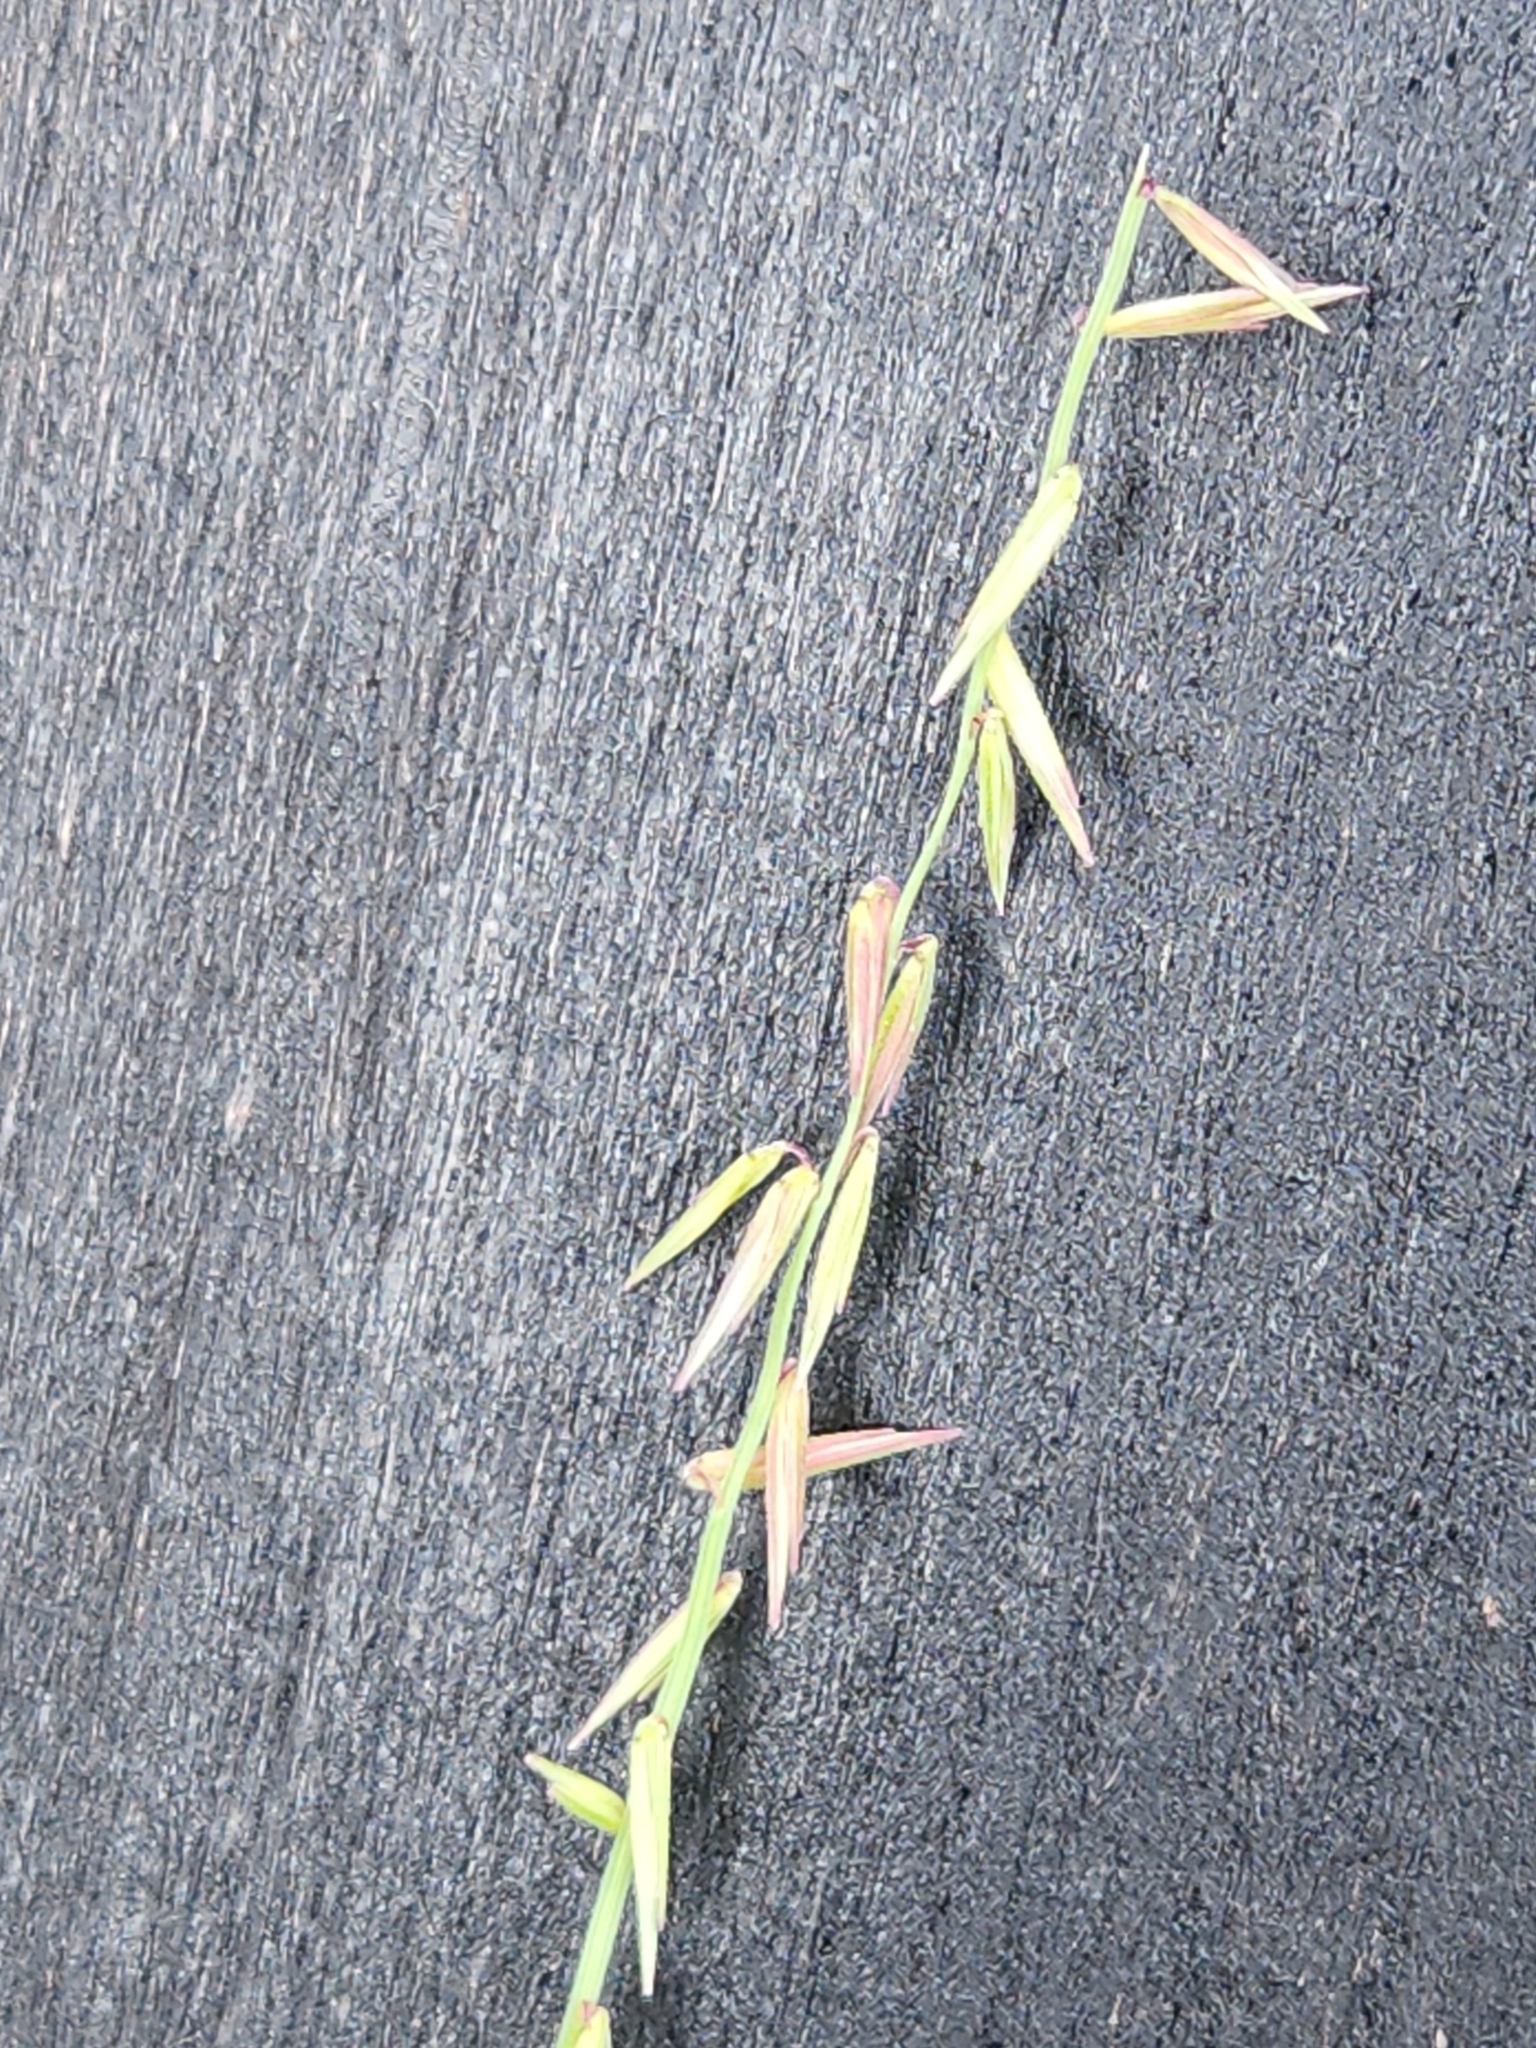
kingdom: Plantae
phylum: Tracheophyta
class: Liliopsida
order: Poales
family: Poaceae
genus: Bouteloua
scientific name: Bouteloua curtipendula
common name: Side-oats grama
